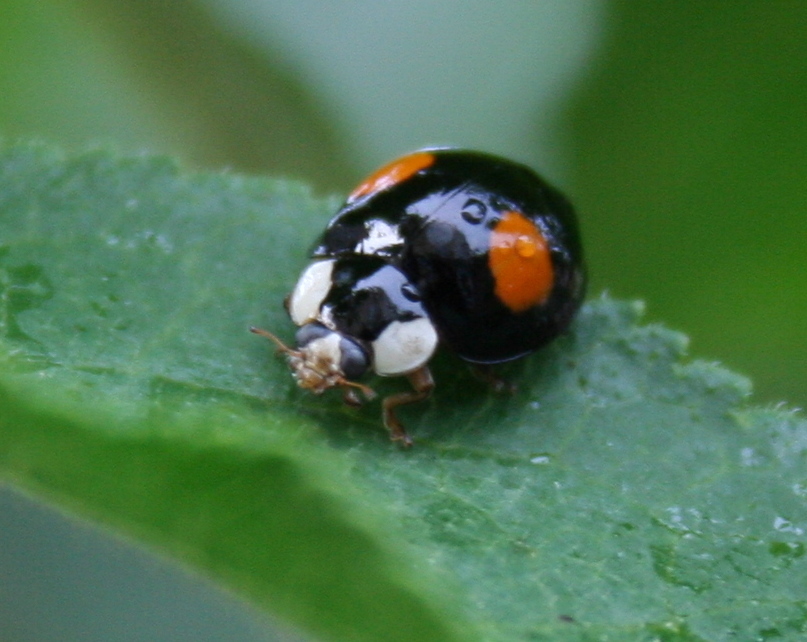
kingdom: Animalia
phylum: Arthropoda
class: Insecta
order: Coleoptera
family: Coccinellidae
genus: Harmonia
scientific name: Harmonia axyridis
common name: Harlequin ladybird
